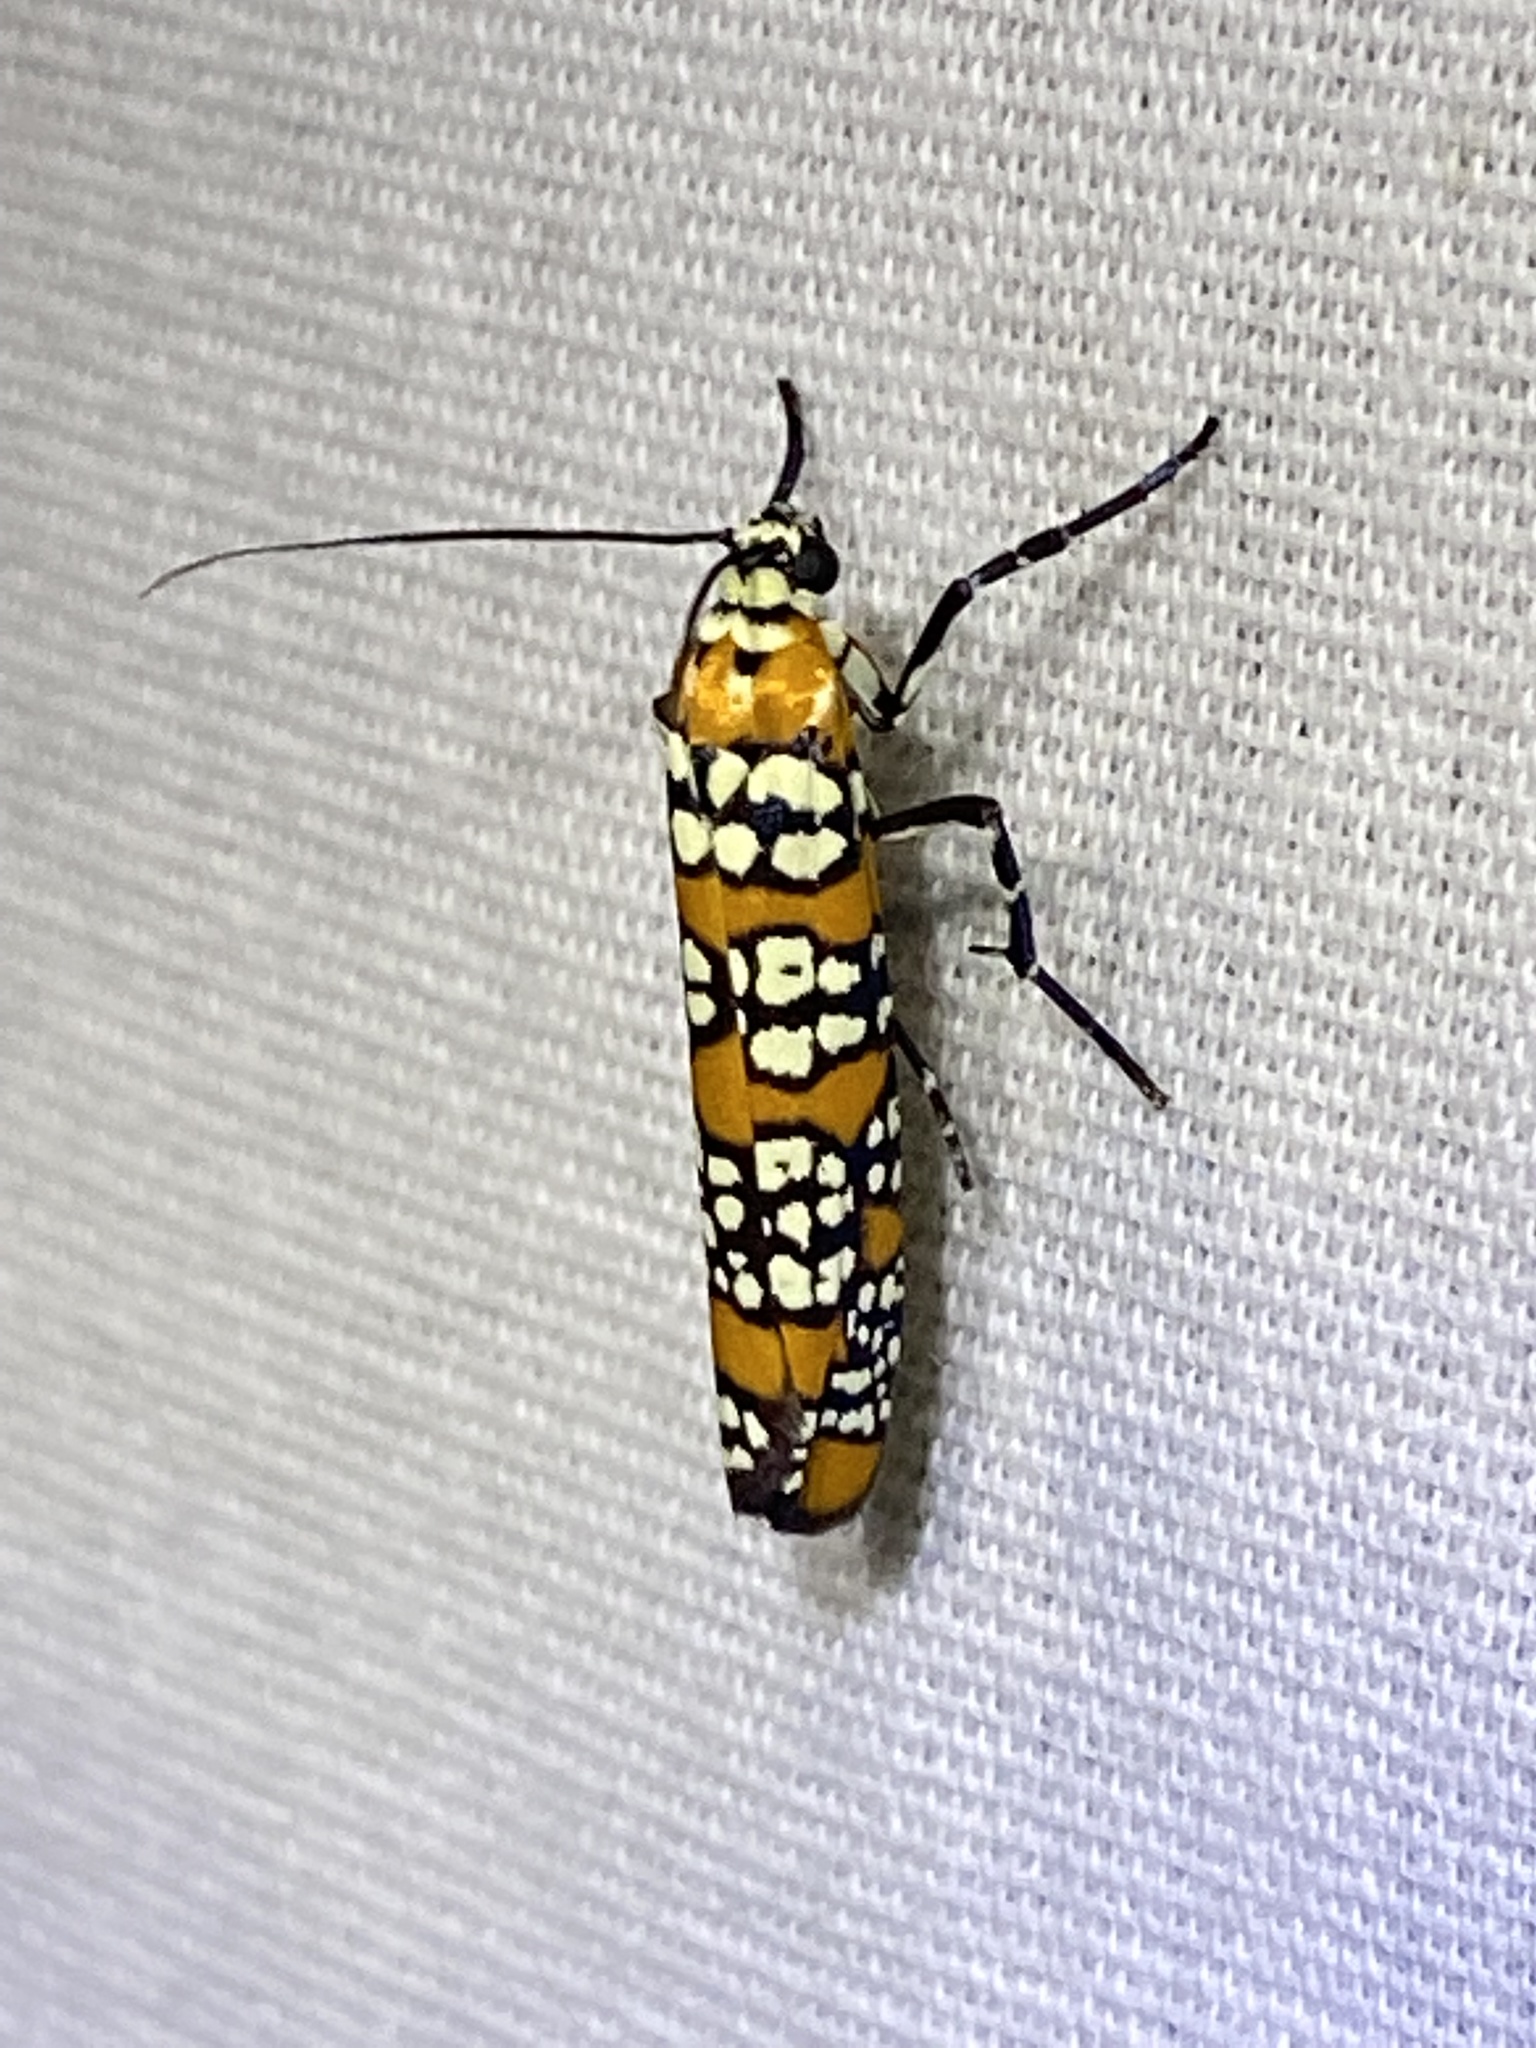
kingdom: Animalia
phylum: Arthropoda
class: Insecta
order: Lepidoptera
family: Attevidae
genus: Atteva
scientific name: Atteva punctella
